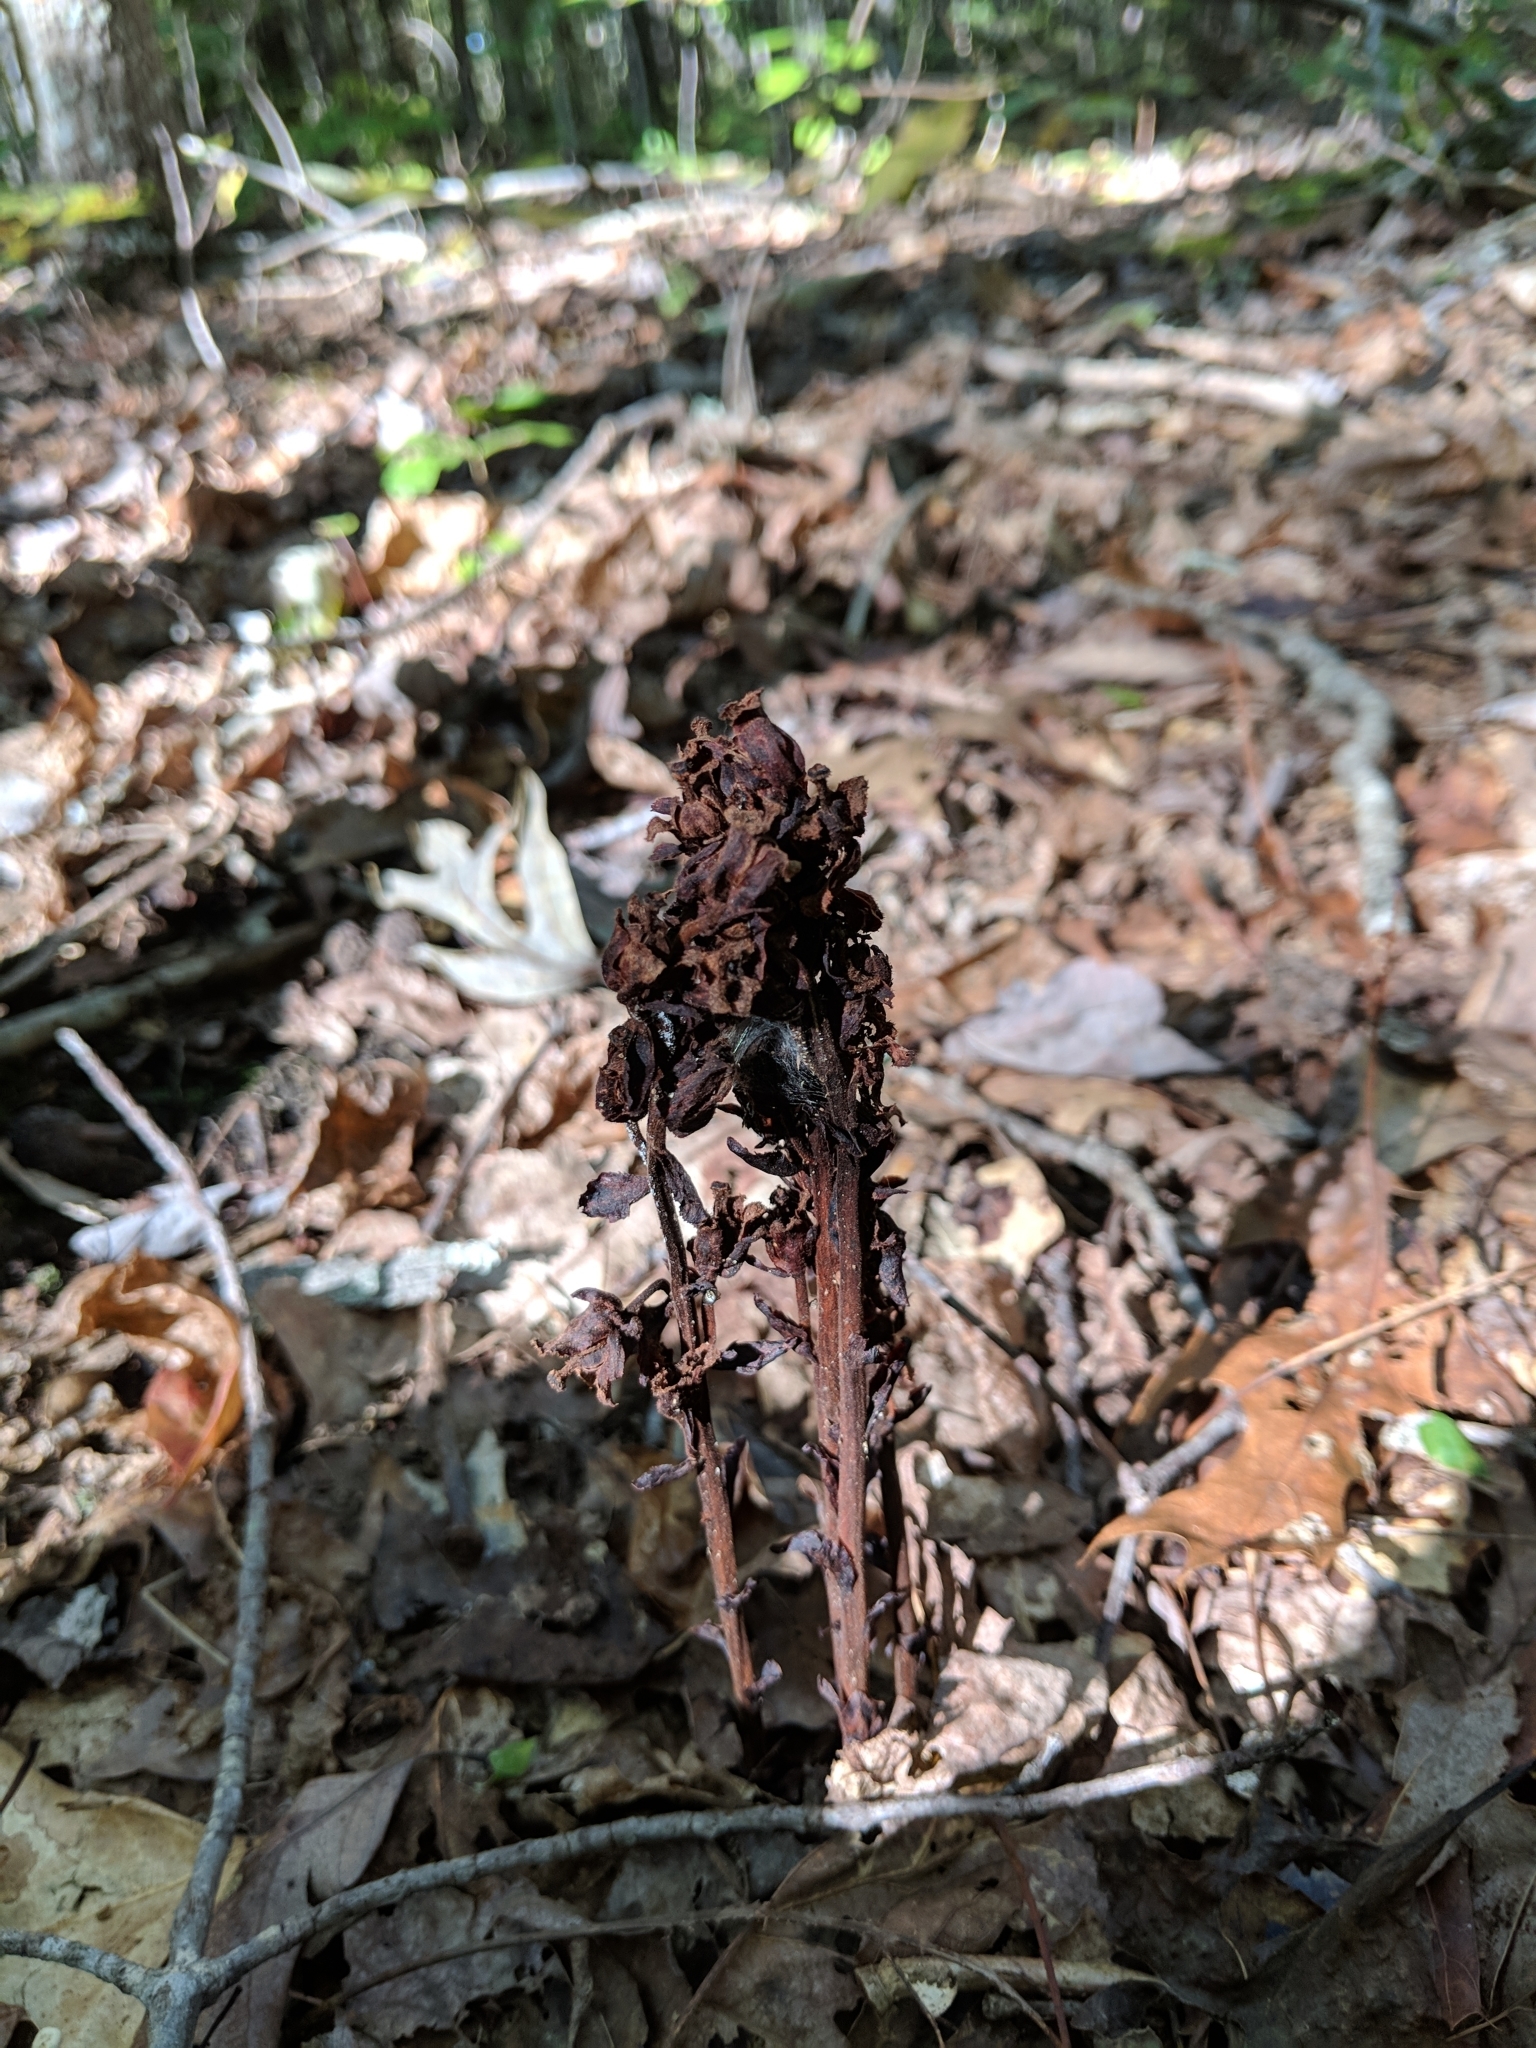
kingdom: Plantae
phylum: Tracheophyta
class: Magnoliopsida
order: Ericales
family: Ericaceae
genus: Hypopitys
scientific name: Hypopitys monotropa
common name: Yellow bird's-nest
